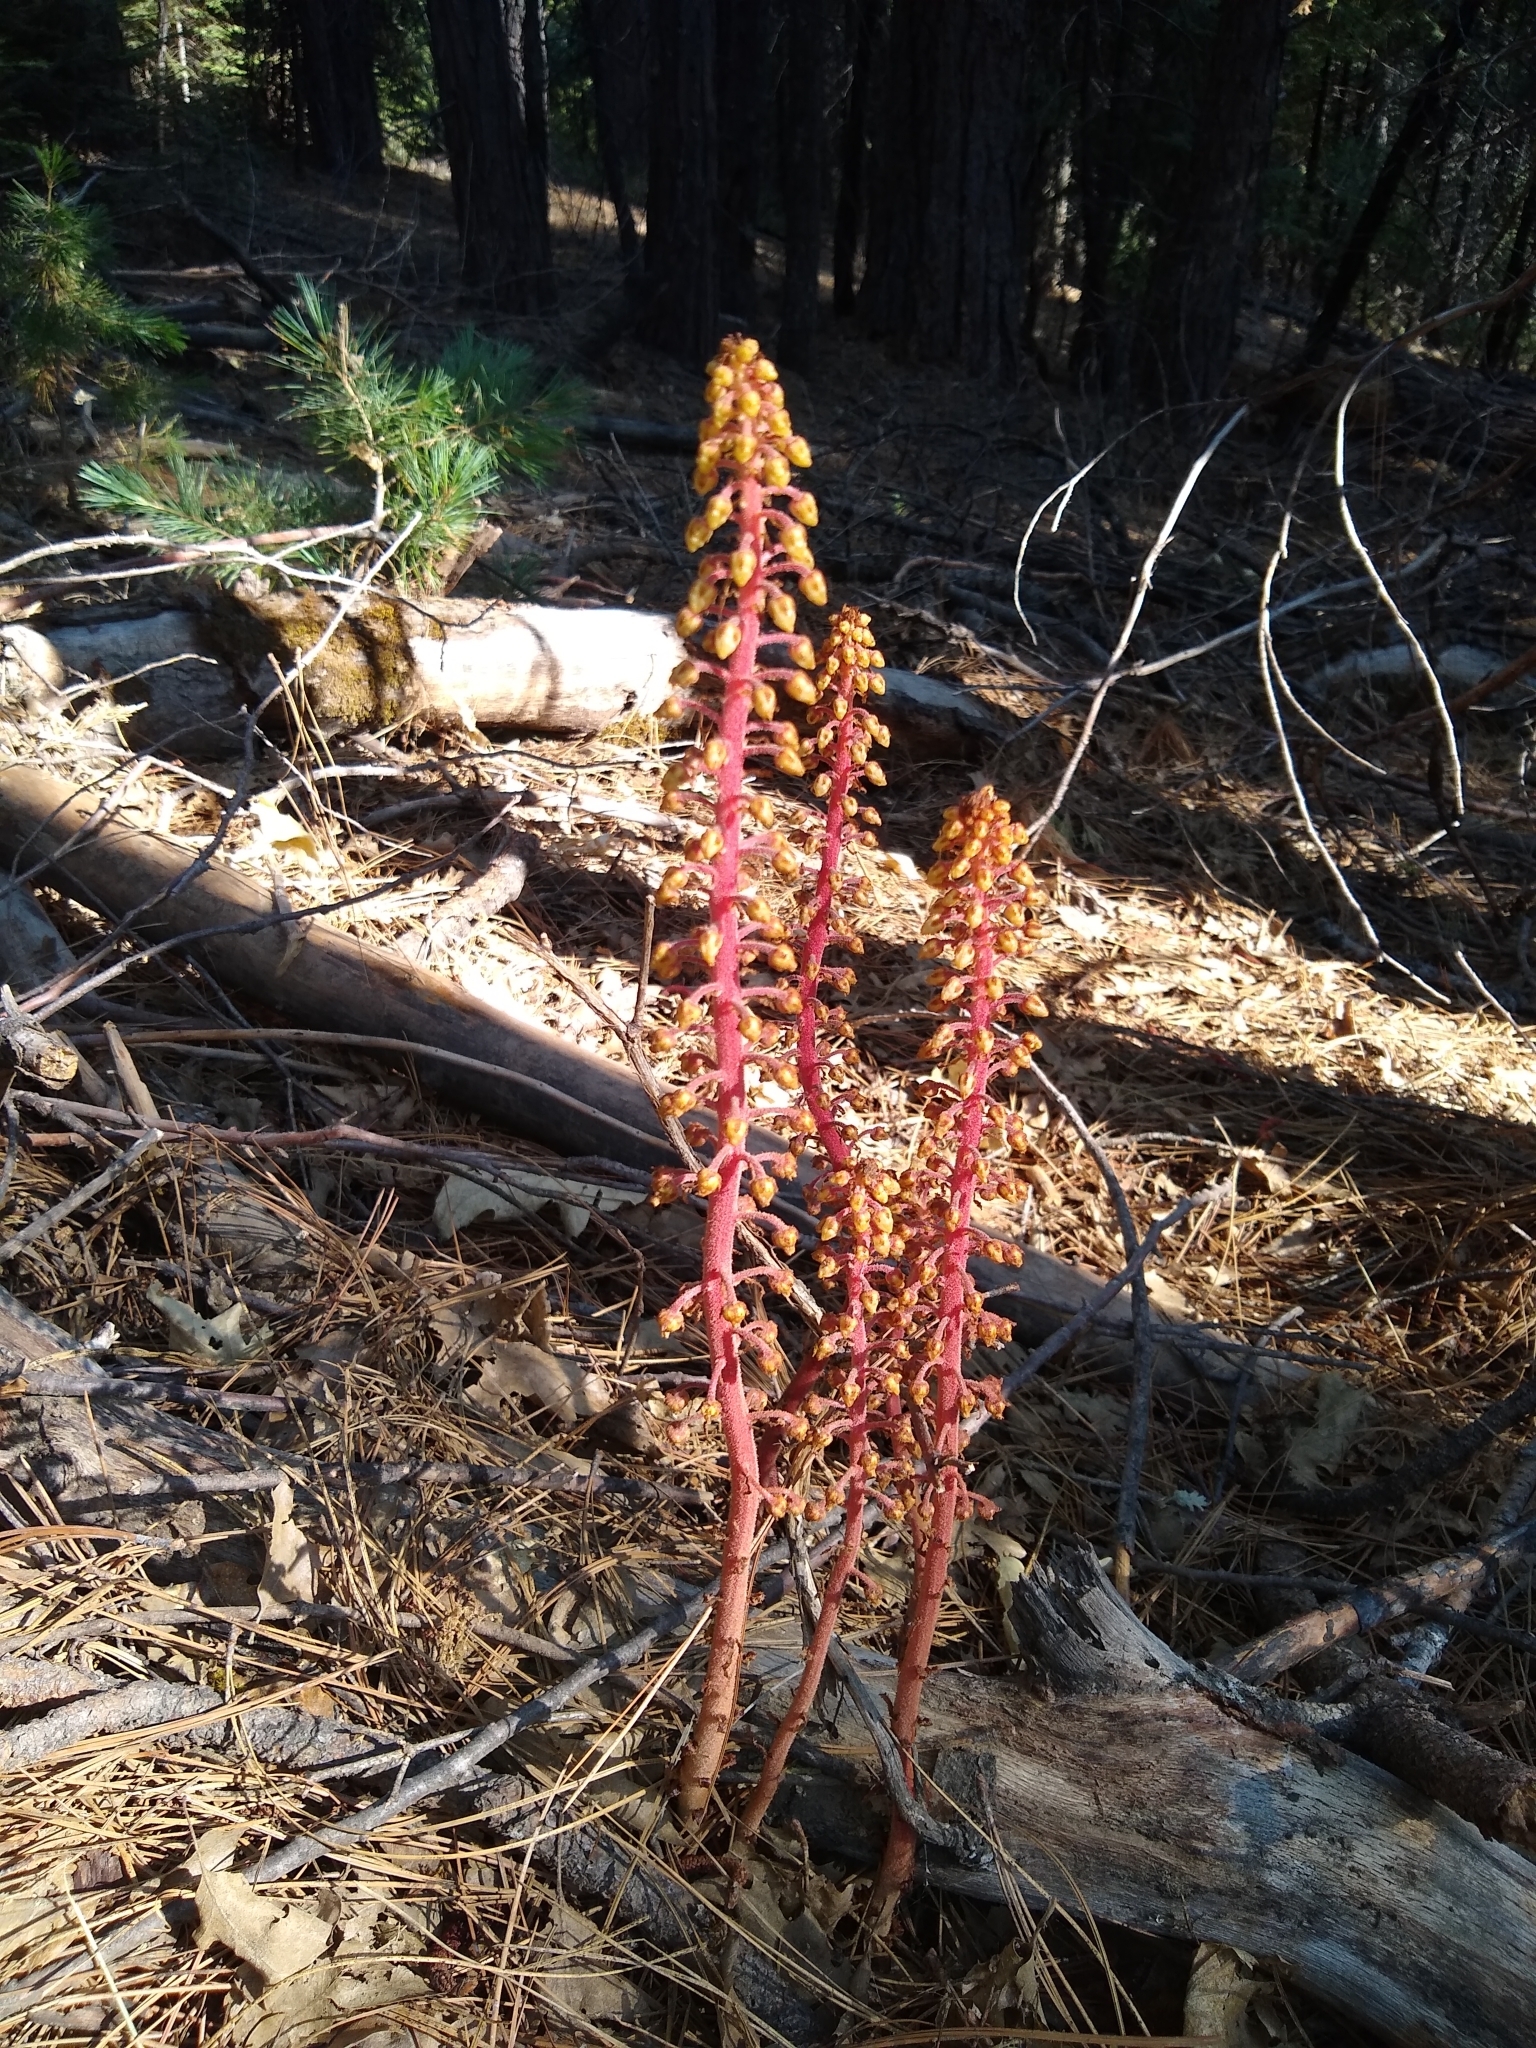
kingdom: Plantae
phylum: Tracheophyta
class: Magnoliopsida
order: Ericales
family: Ericaceae
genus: Pterospora
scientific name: Pterospora andromedea
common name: Giant bird's-nest
